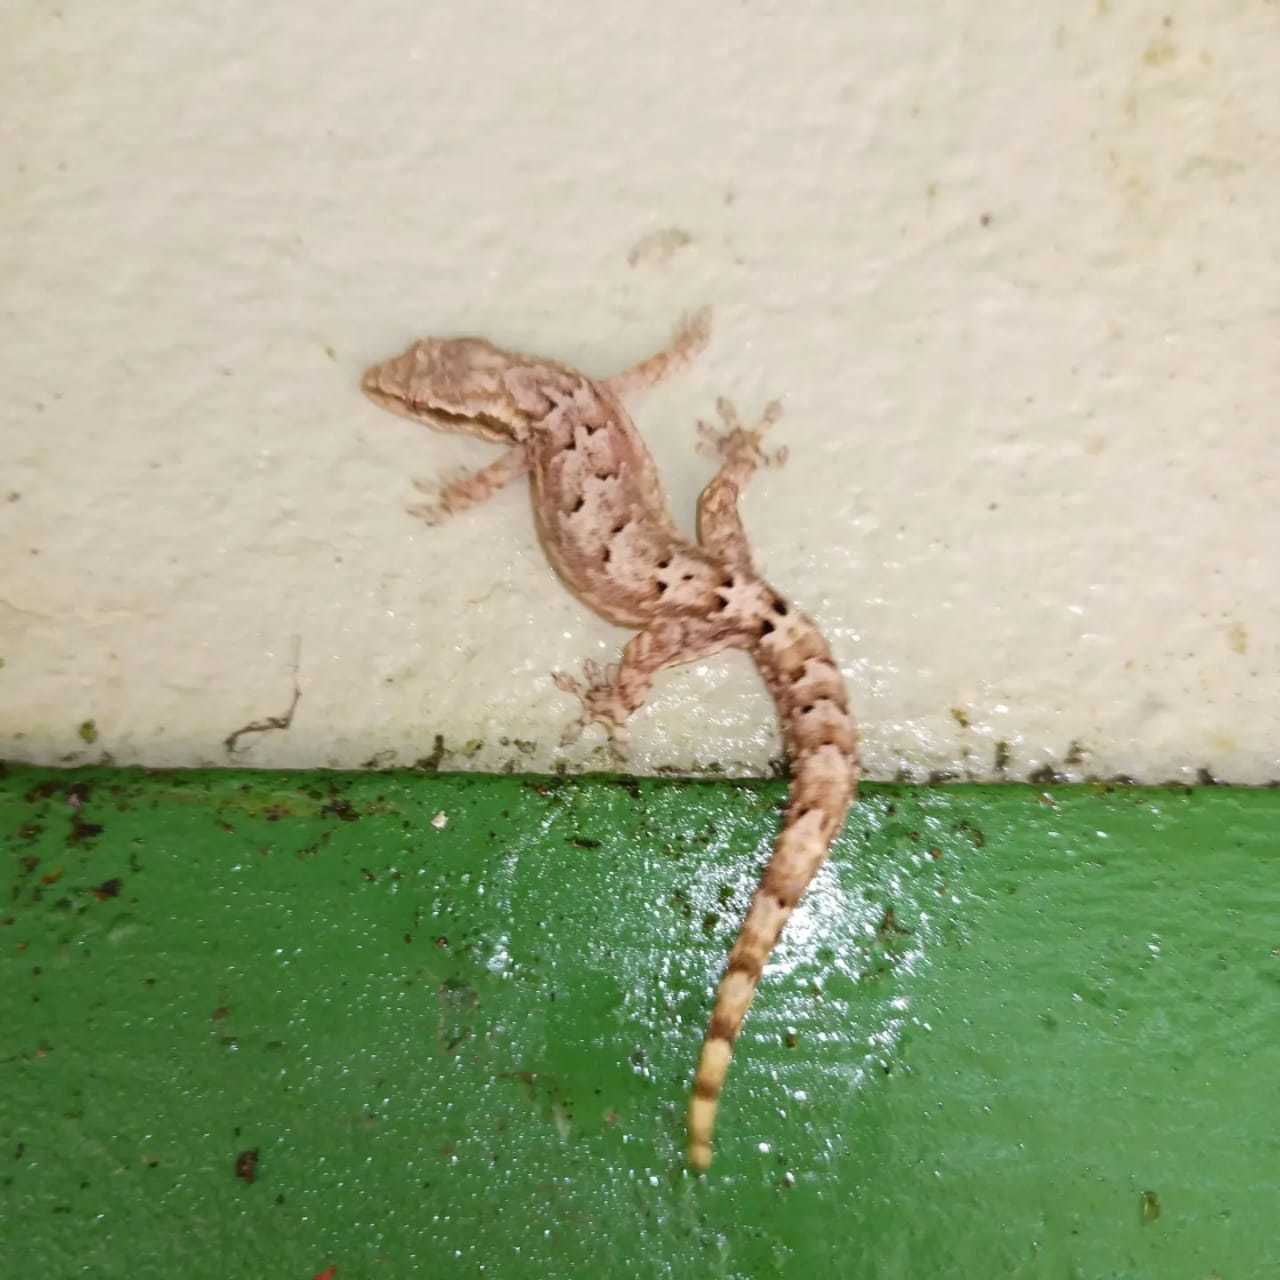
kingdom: Animalia
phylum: Chordata
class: Squamata
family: Gekkonidae
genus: Lepidodactylus
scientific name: Lepidodactylus lugubris
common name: Mourning gecko
